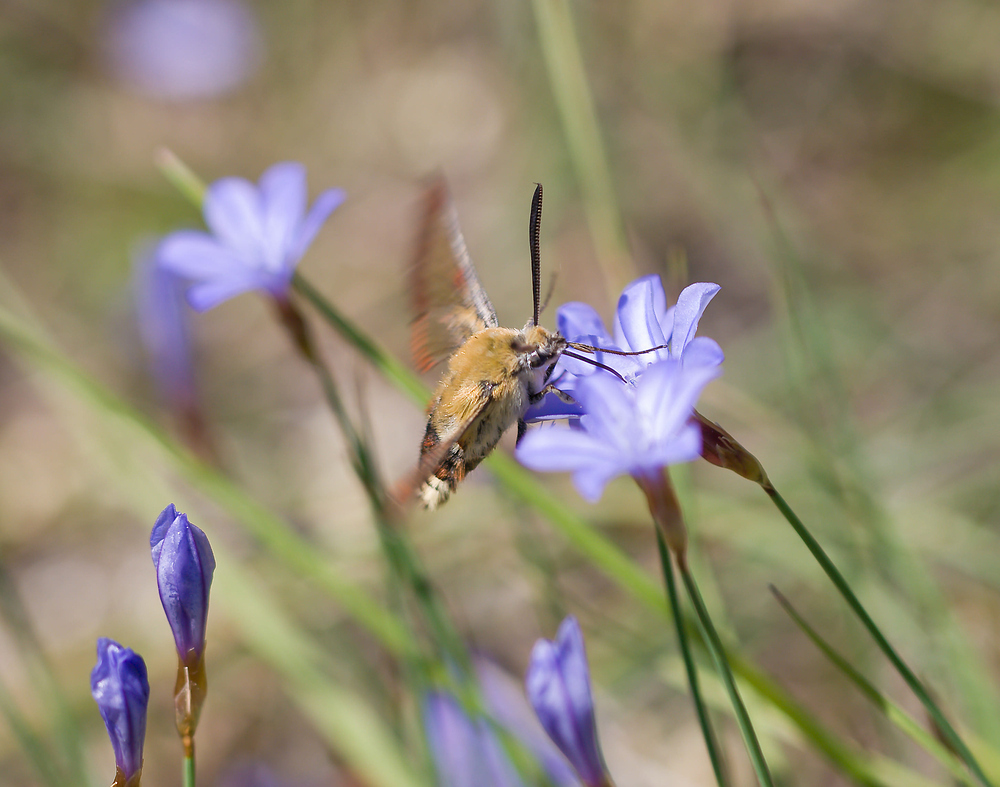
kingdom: Animalia
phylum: Arthropoda
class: Insecta
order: Lepidoptera
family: Sphingidae
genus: Hemaris
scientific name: Hemaris fuciformis
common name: Broad-bordered bee hawk-moth
